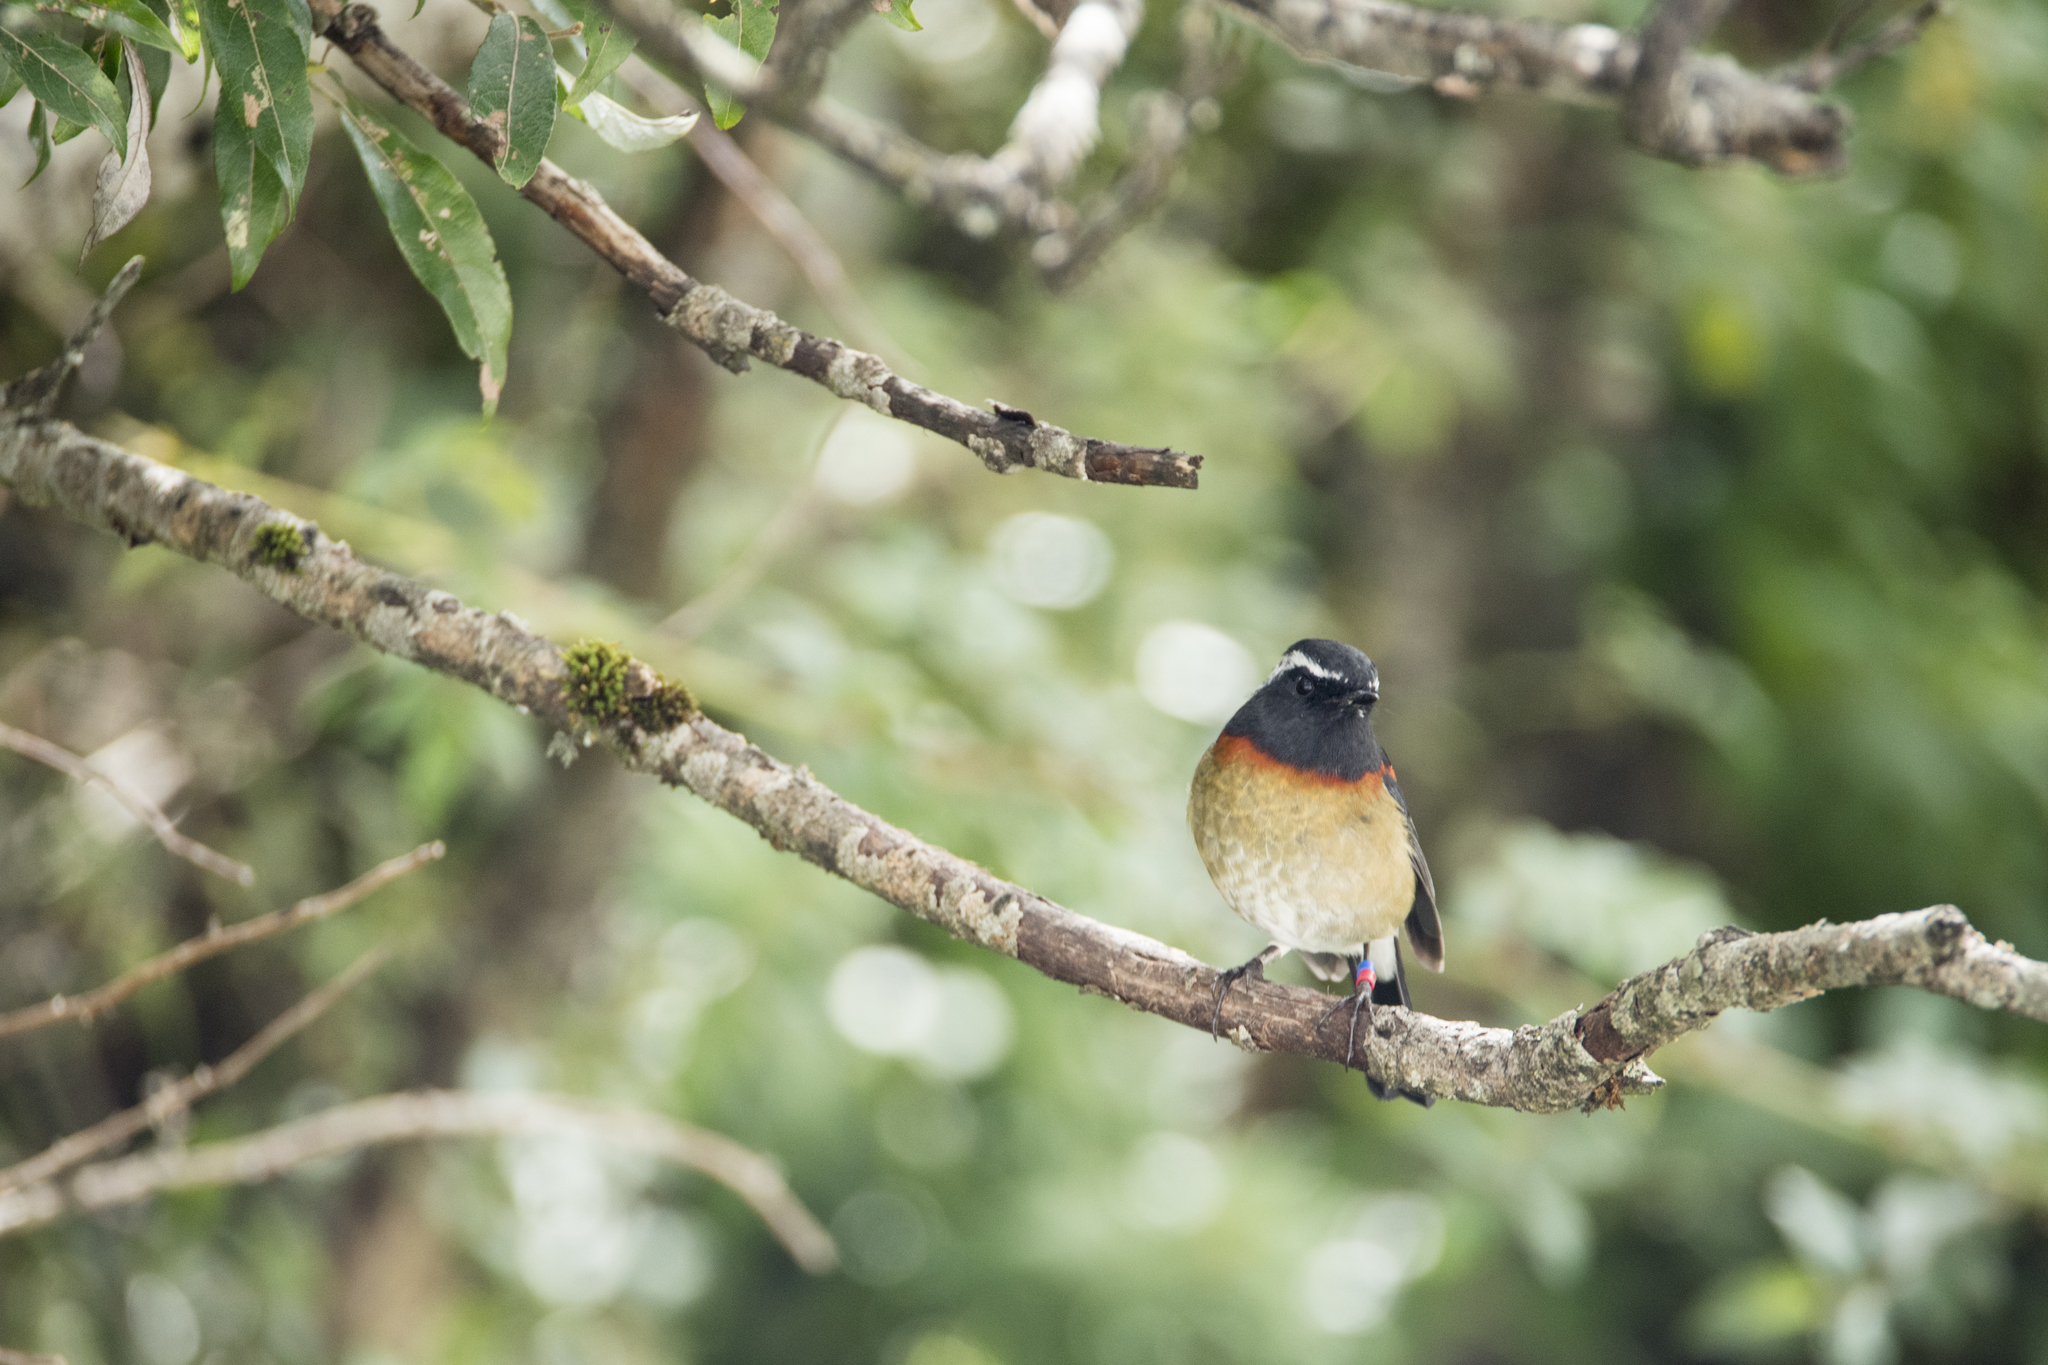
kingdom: Animalia
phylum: Chordata
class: Aves
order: Passeriformes
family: Muscicapidae
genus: Tarsiger
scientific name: Tarsiger johnstoniae
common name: Collared bush robin
